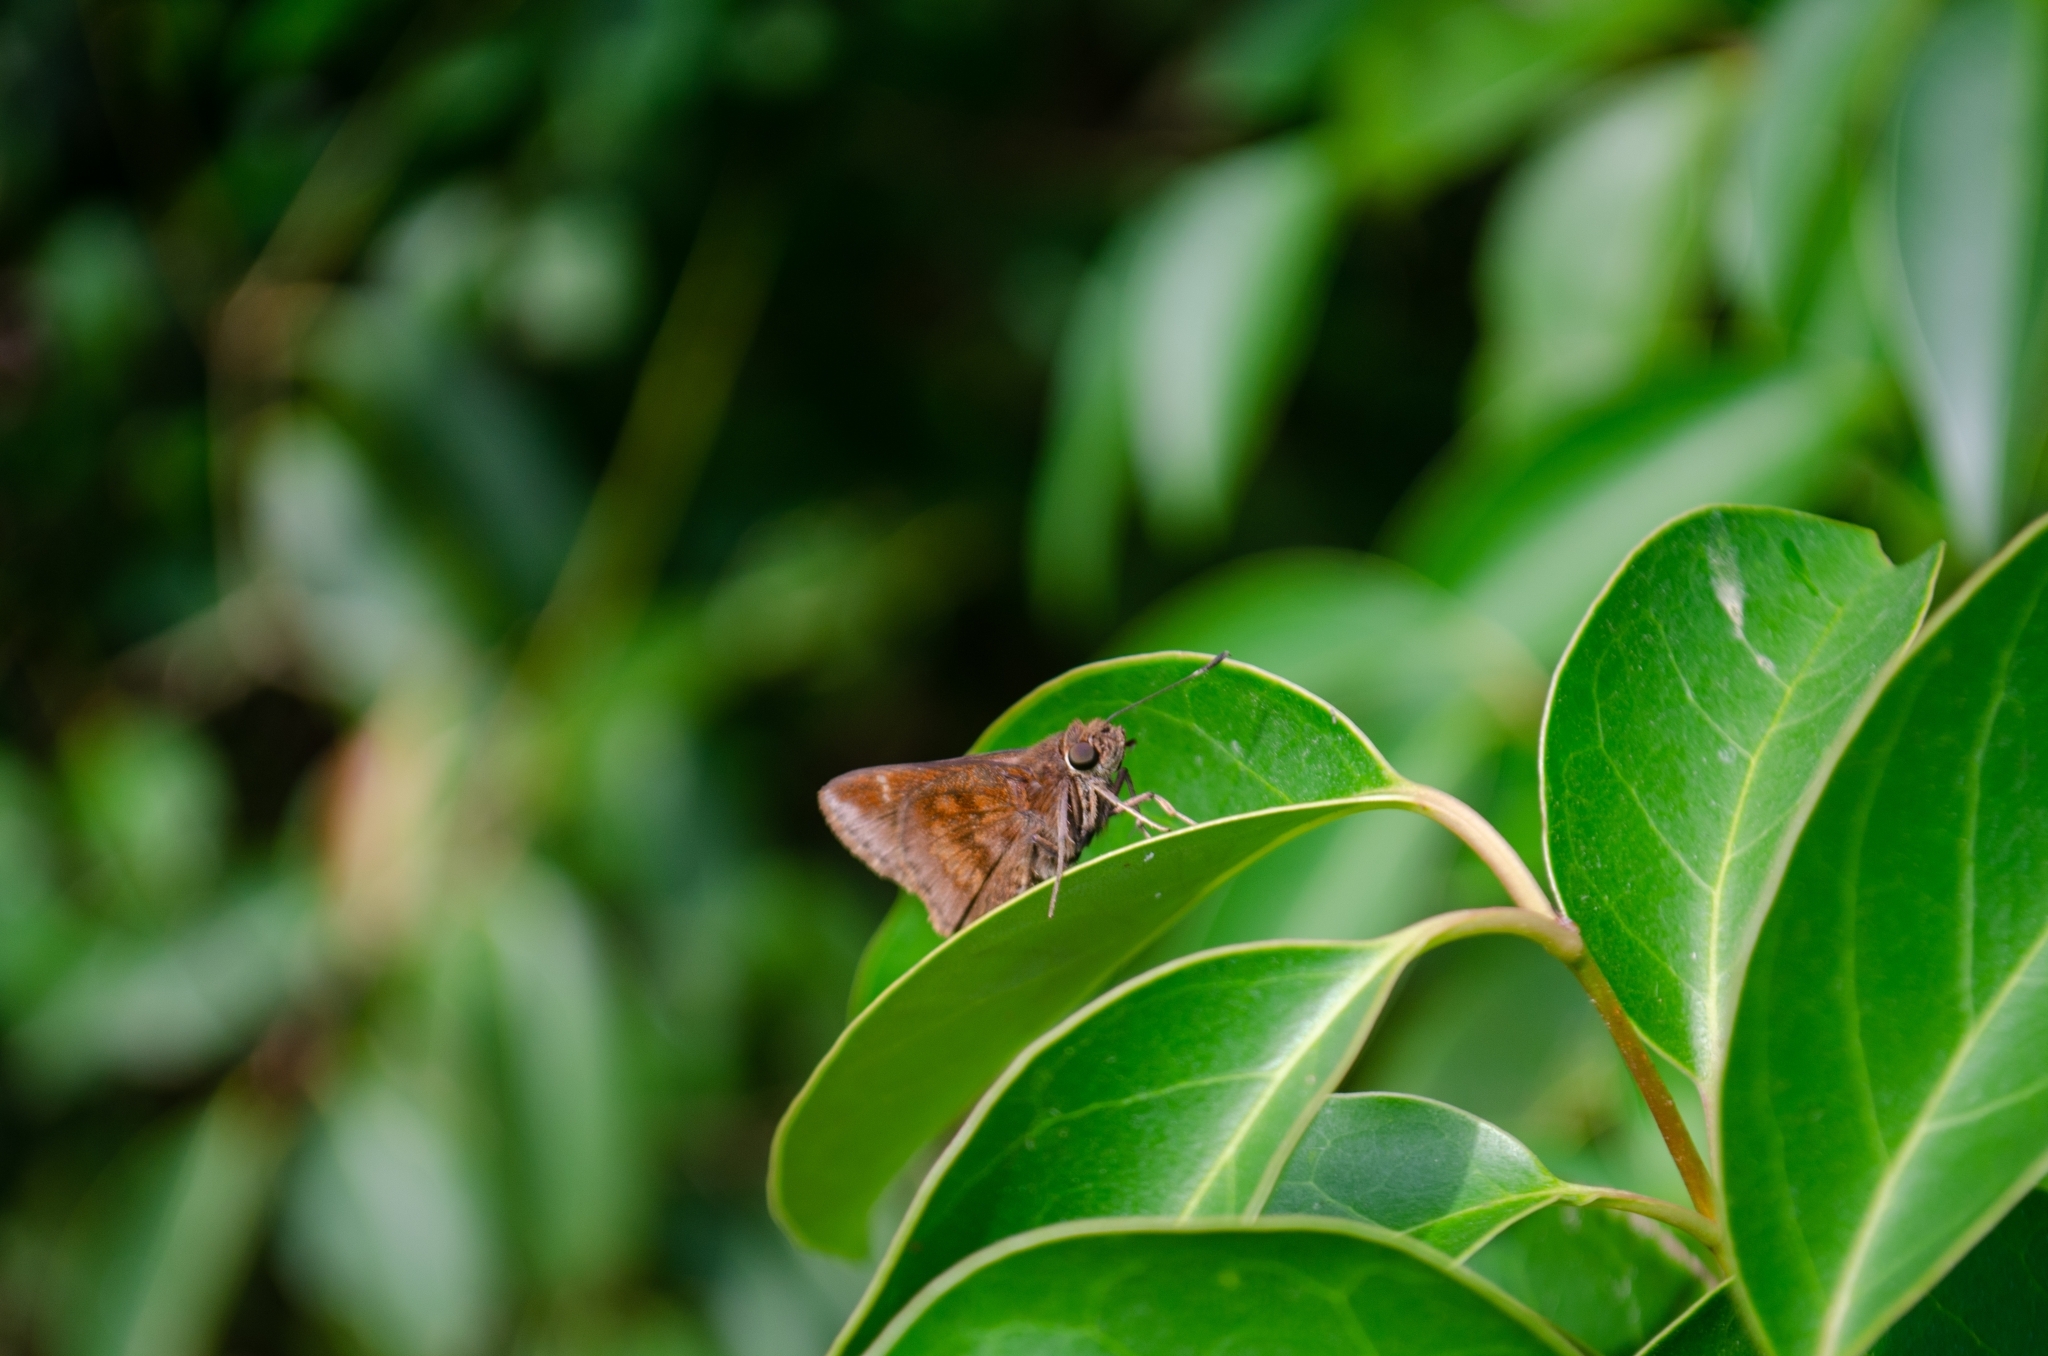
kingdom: Animalia
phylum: Arthropoda
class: Insecta
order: Lepidoptera
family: Hesperiidae
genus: Quinta
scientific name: Quinta cannae
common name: Canna skipper
